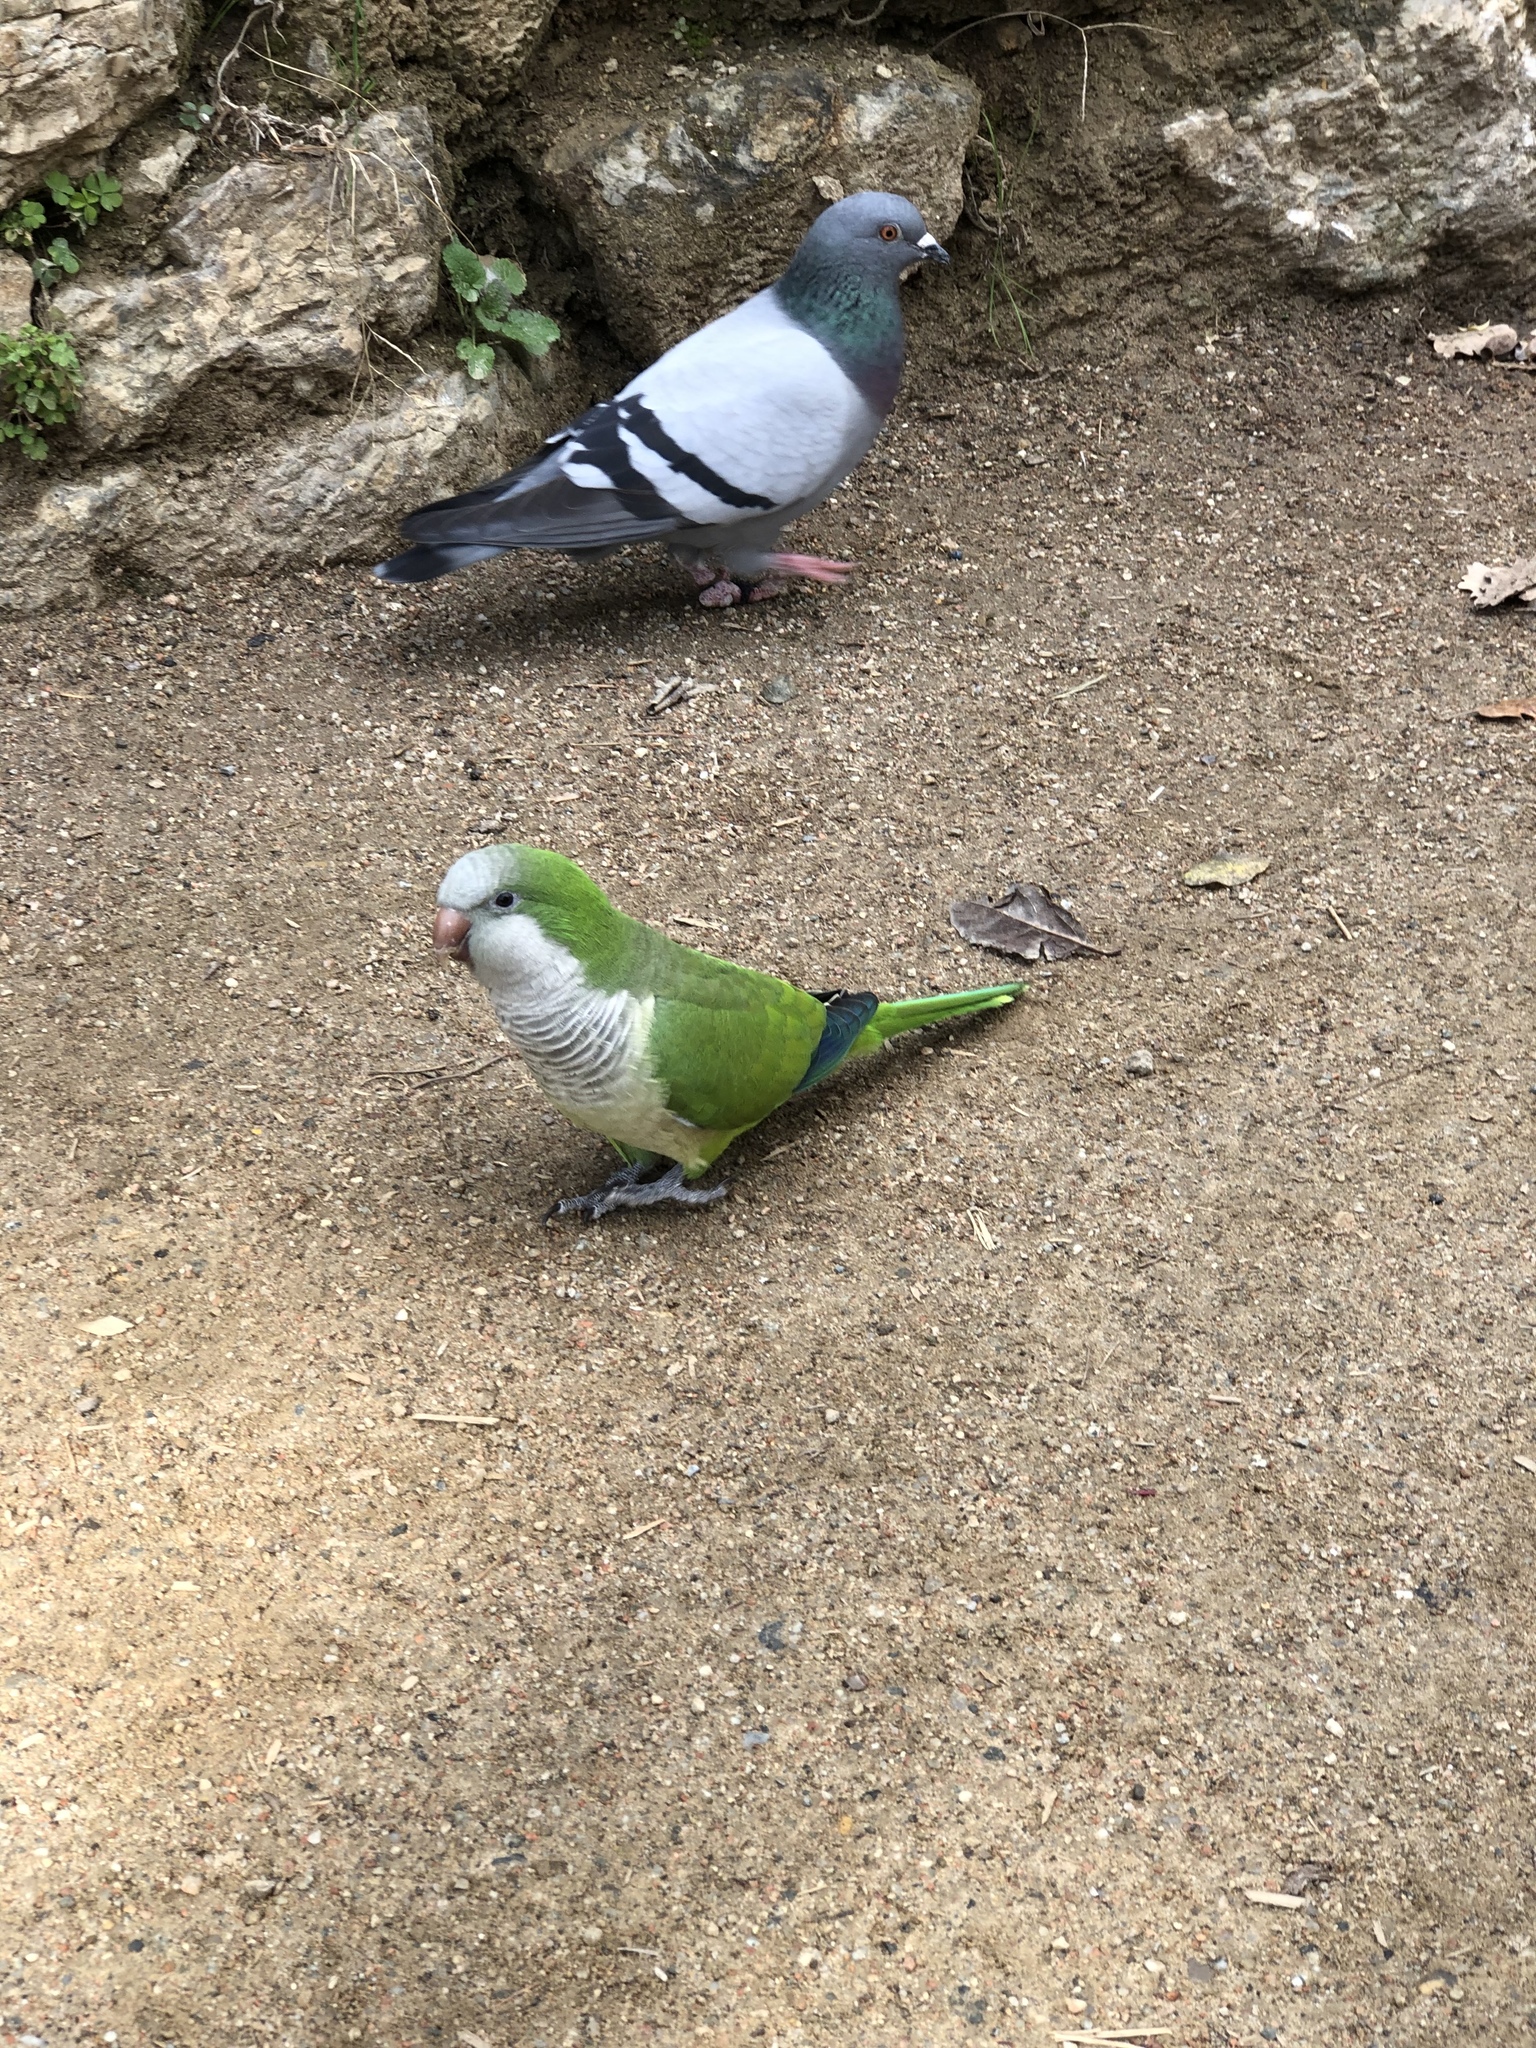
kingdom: Animalia
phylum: Chordata
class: Aves
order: Psittaciformes
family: Psittacidae
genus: Myiopsitta
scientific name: Myiopsitta monachus
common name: Monk parakeet
